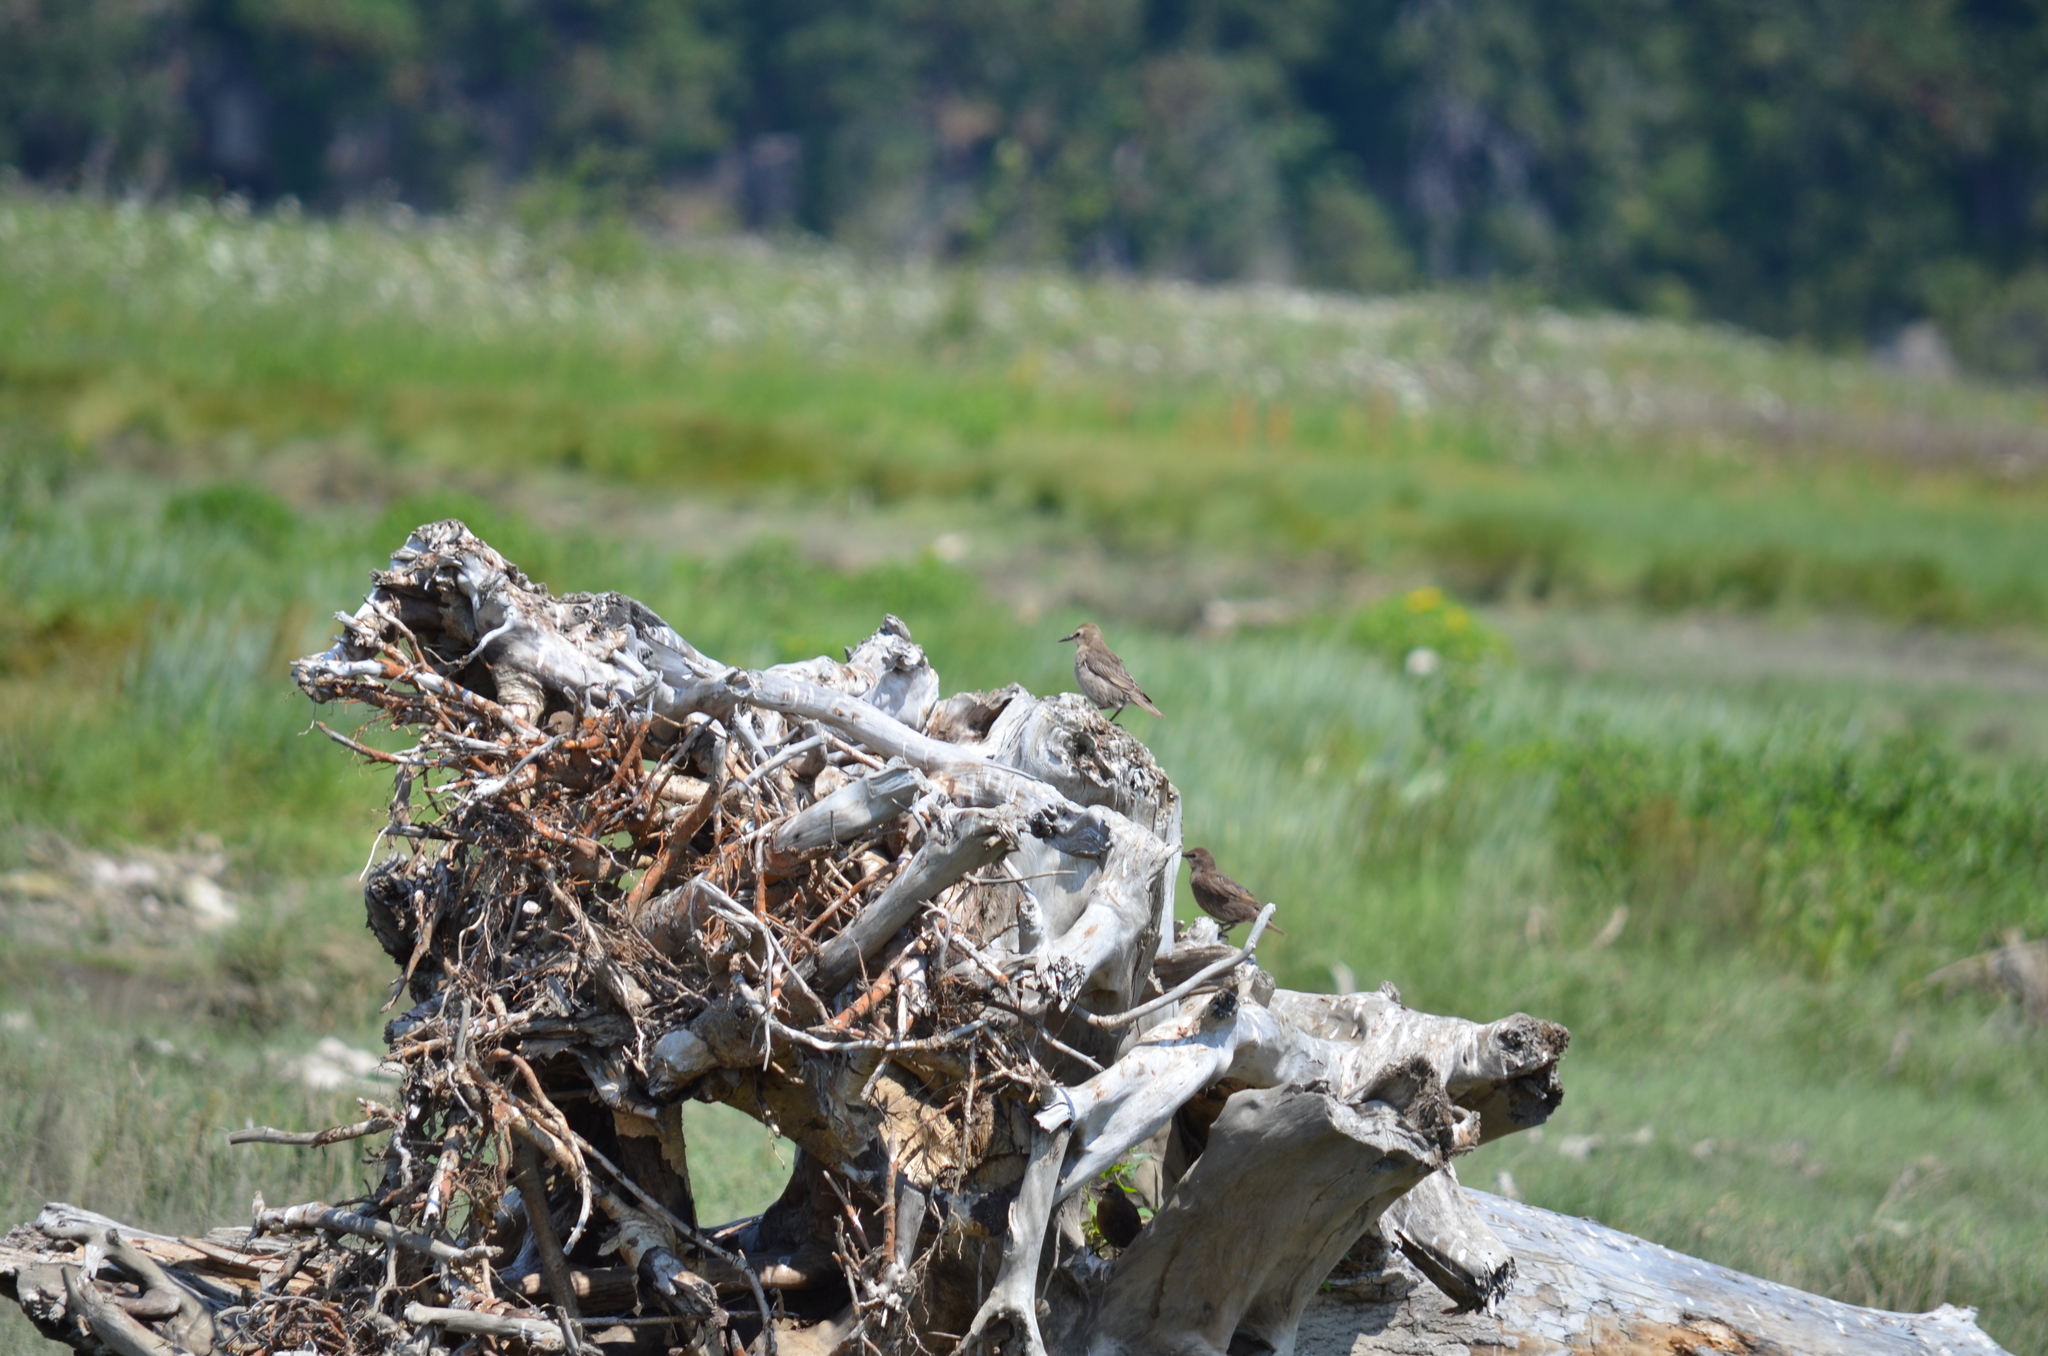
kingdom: Animalia
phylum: Chordata
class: Aves
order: Passeriformes
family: Sturnidae
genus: Sturnus
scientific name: Sturnus vulgaris
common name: Common starling
